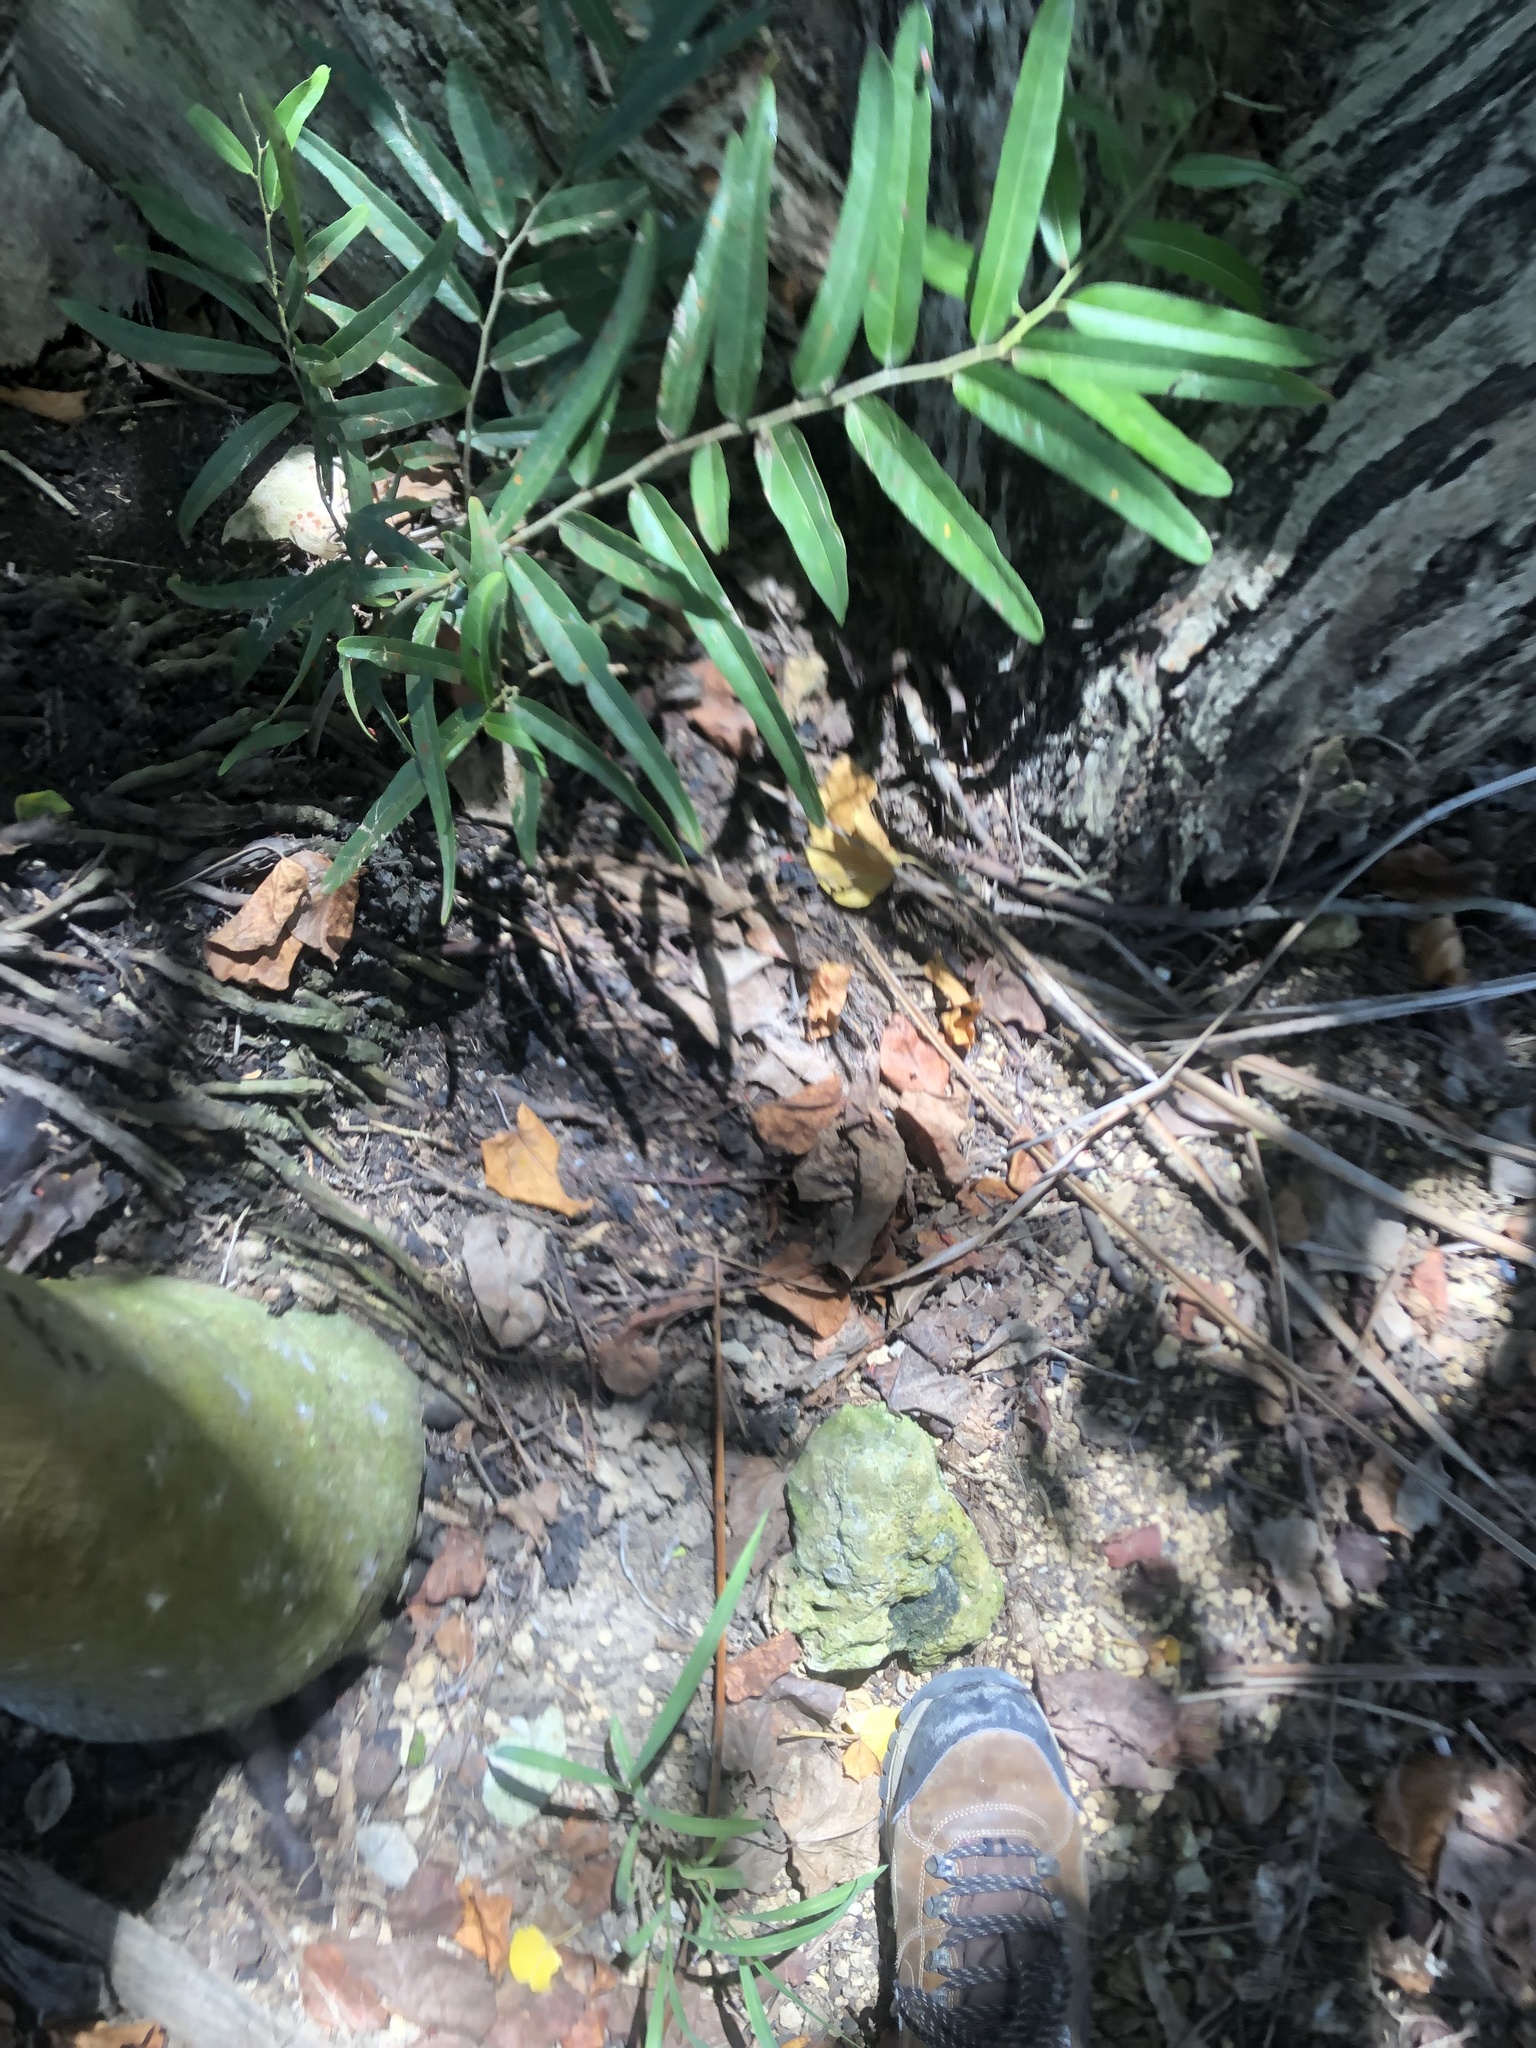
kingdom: Plantae
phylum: Tracheophyta
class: Magnoliopsida
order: Brassicales
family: Capparaceae
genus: Cynophalla
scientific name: Cynophalla flexuosa
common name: Capertree
